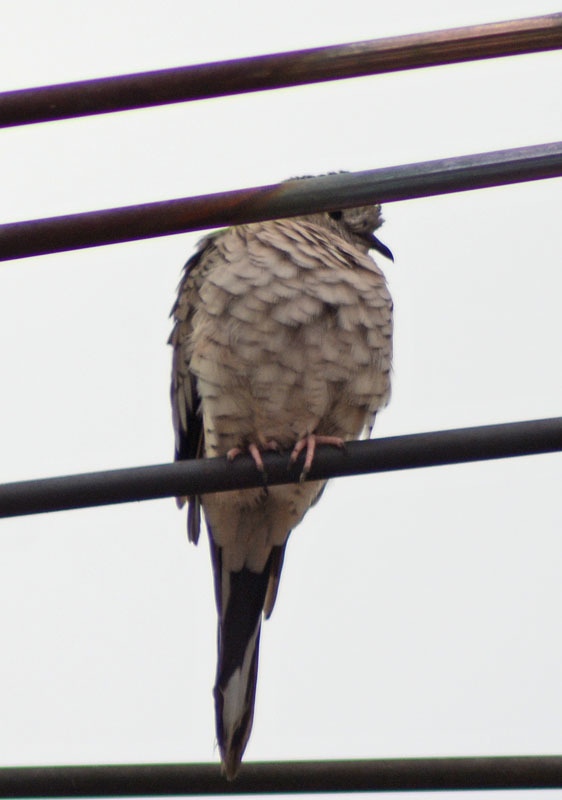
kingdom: Animalia
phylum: Chordata
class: Aves
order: Columbiformes
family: Columbidae
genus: Columbina
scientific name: Columbina inca
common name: Inca dove
